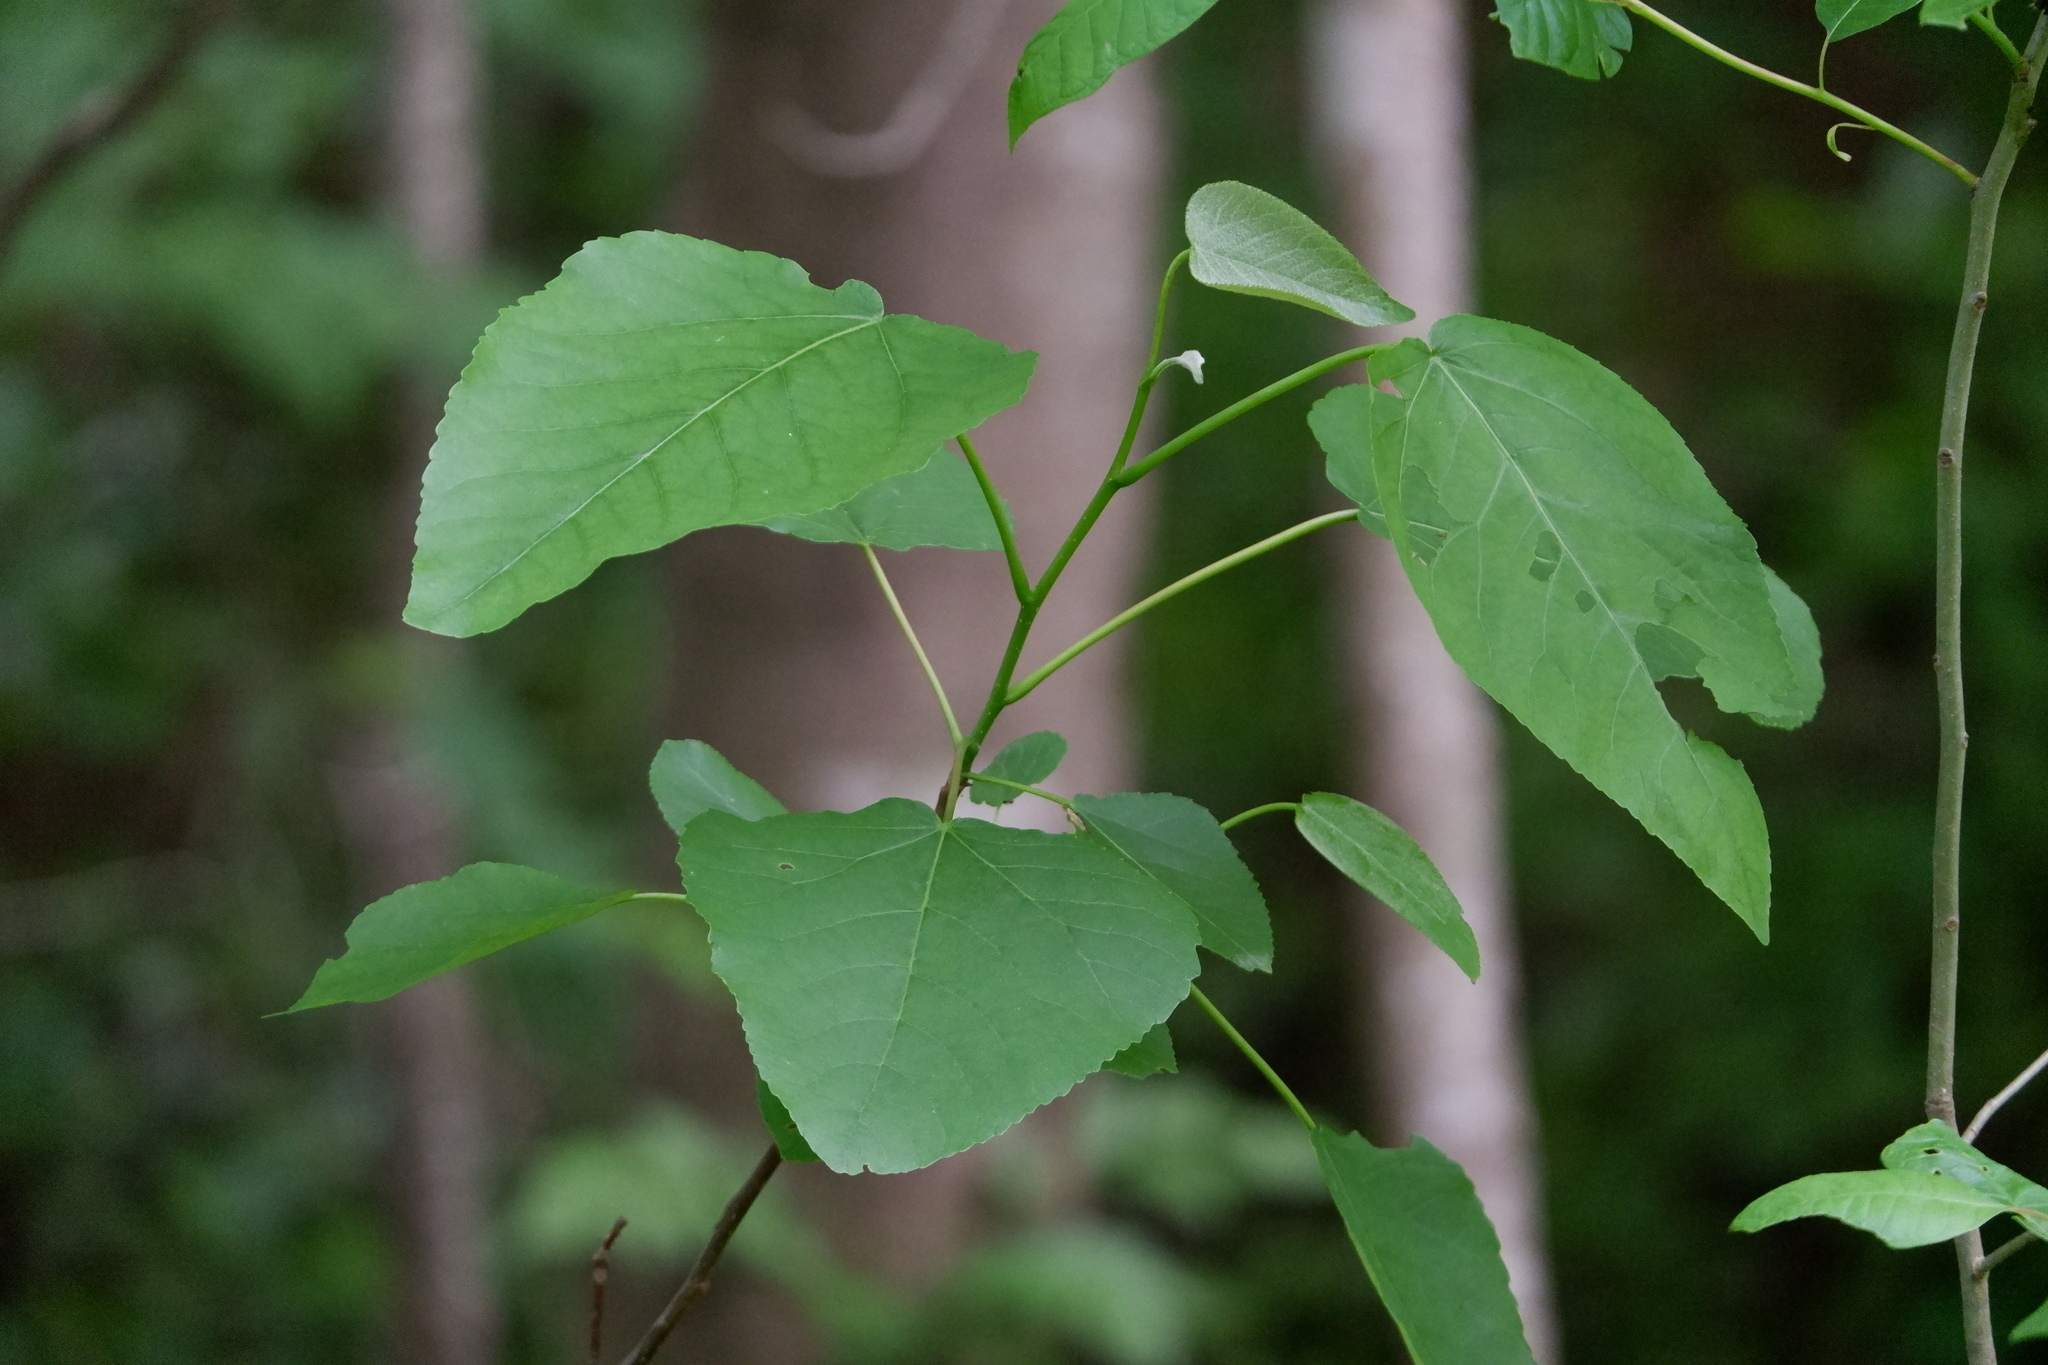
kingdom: Plantae
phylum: Tracheophyta
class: Magnoliopsida
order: Malpighiales
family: Salicaceae
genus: Populus
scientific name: Populus heterophylla
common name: Downy poplar
